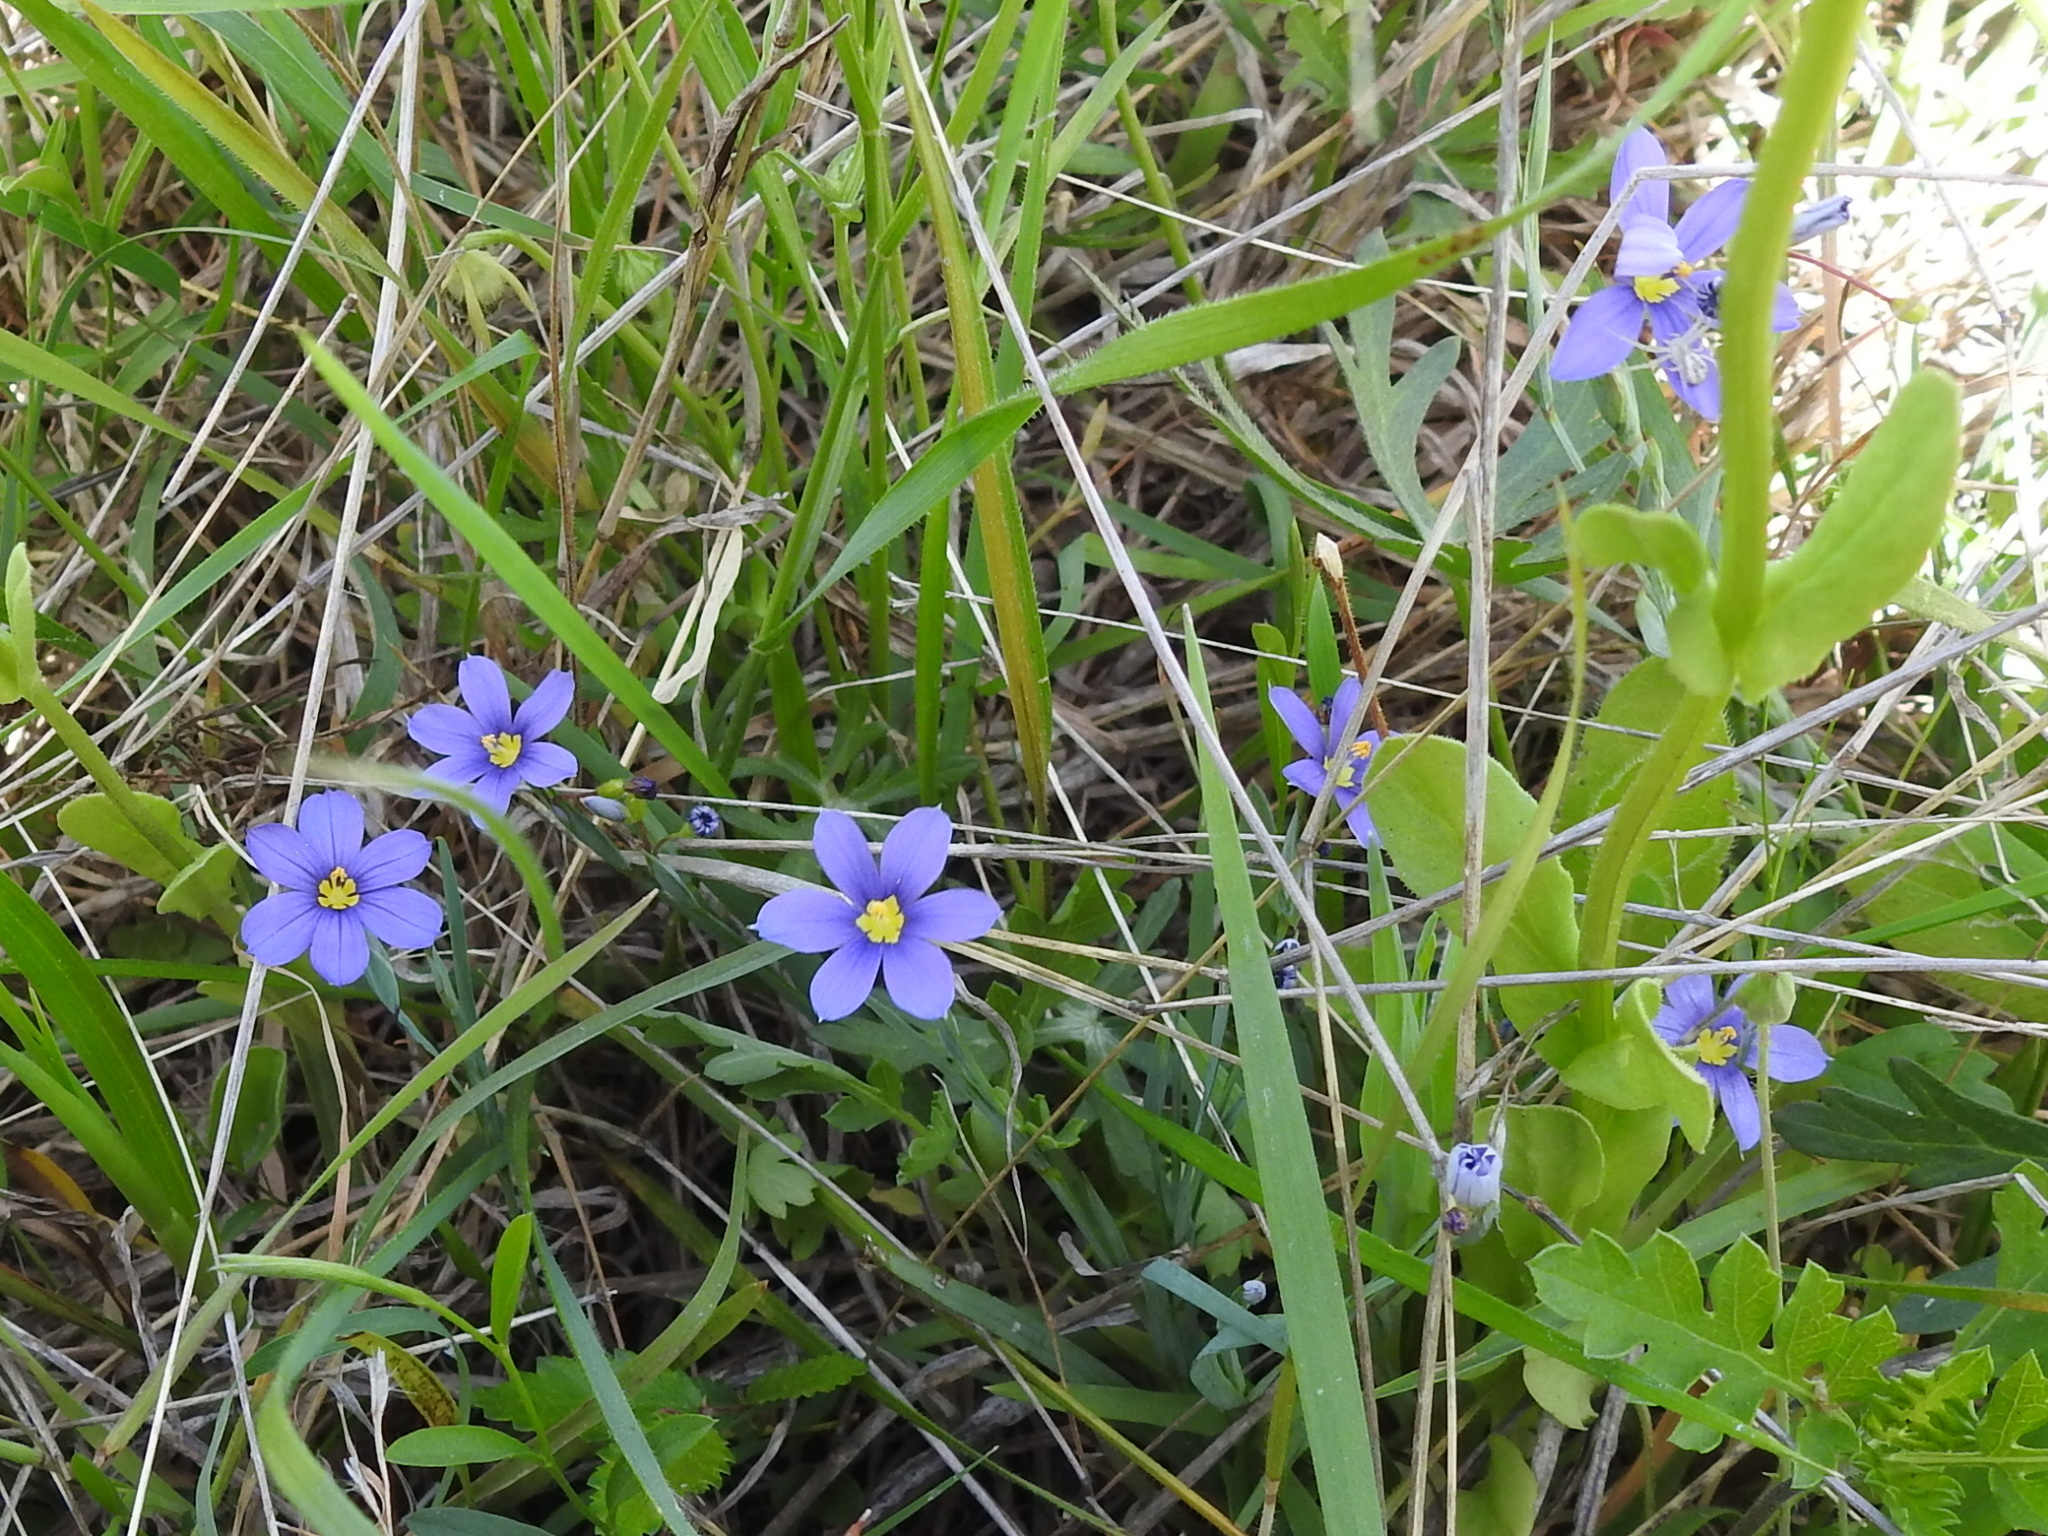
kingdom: Plantae
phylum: Tracheophyta
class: Liliopsida
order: Asparagales
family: Iridaceae
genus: Sisyrinchium
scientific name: Sisyrinchium pruinosum
